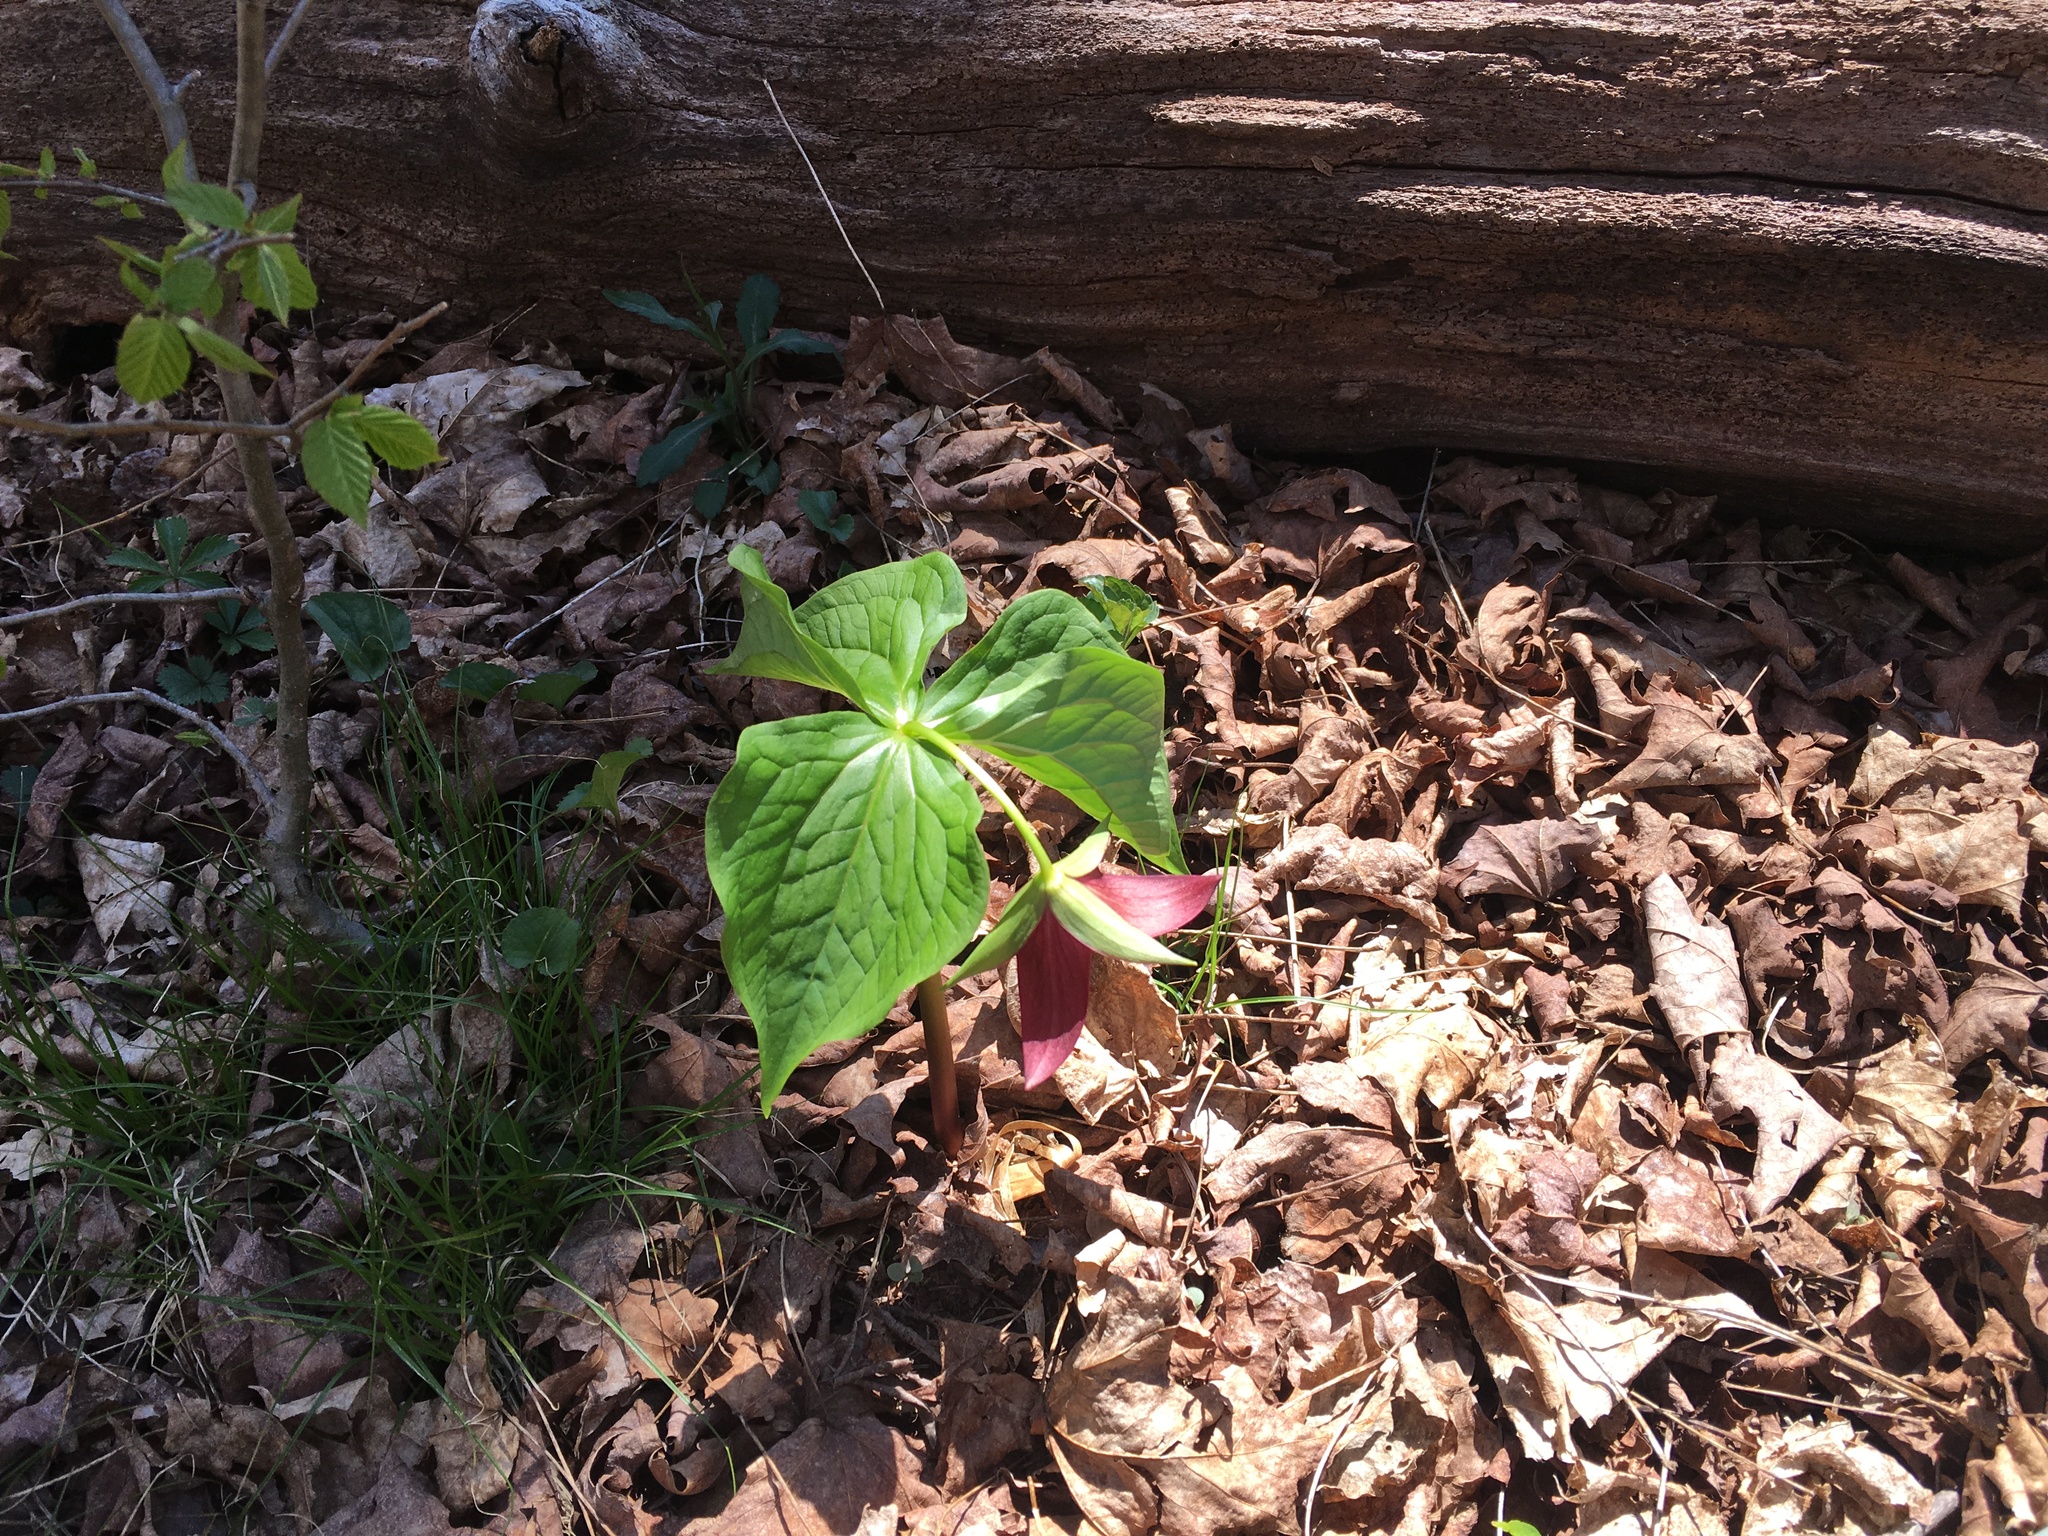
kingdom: Plantae
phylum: Tracheophyta
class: Liliopsida
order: Liliales
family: Melanthiaceae
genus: Trillium
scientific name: Trillium erectum
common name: Purple trillium
